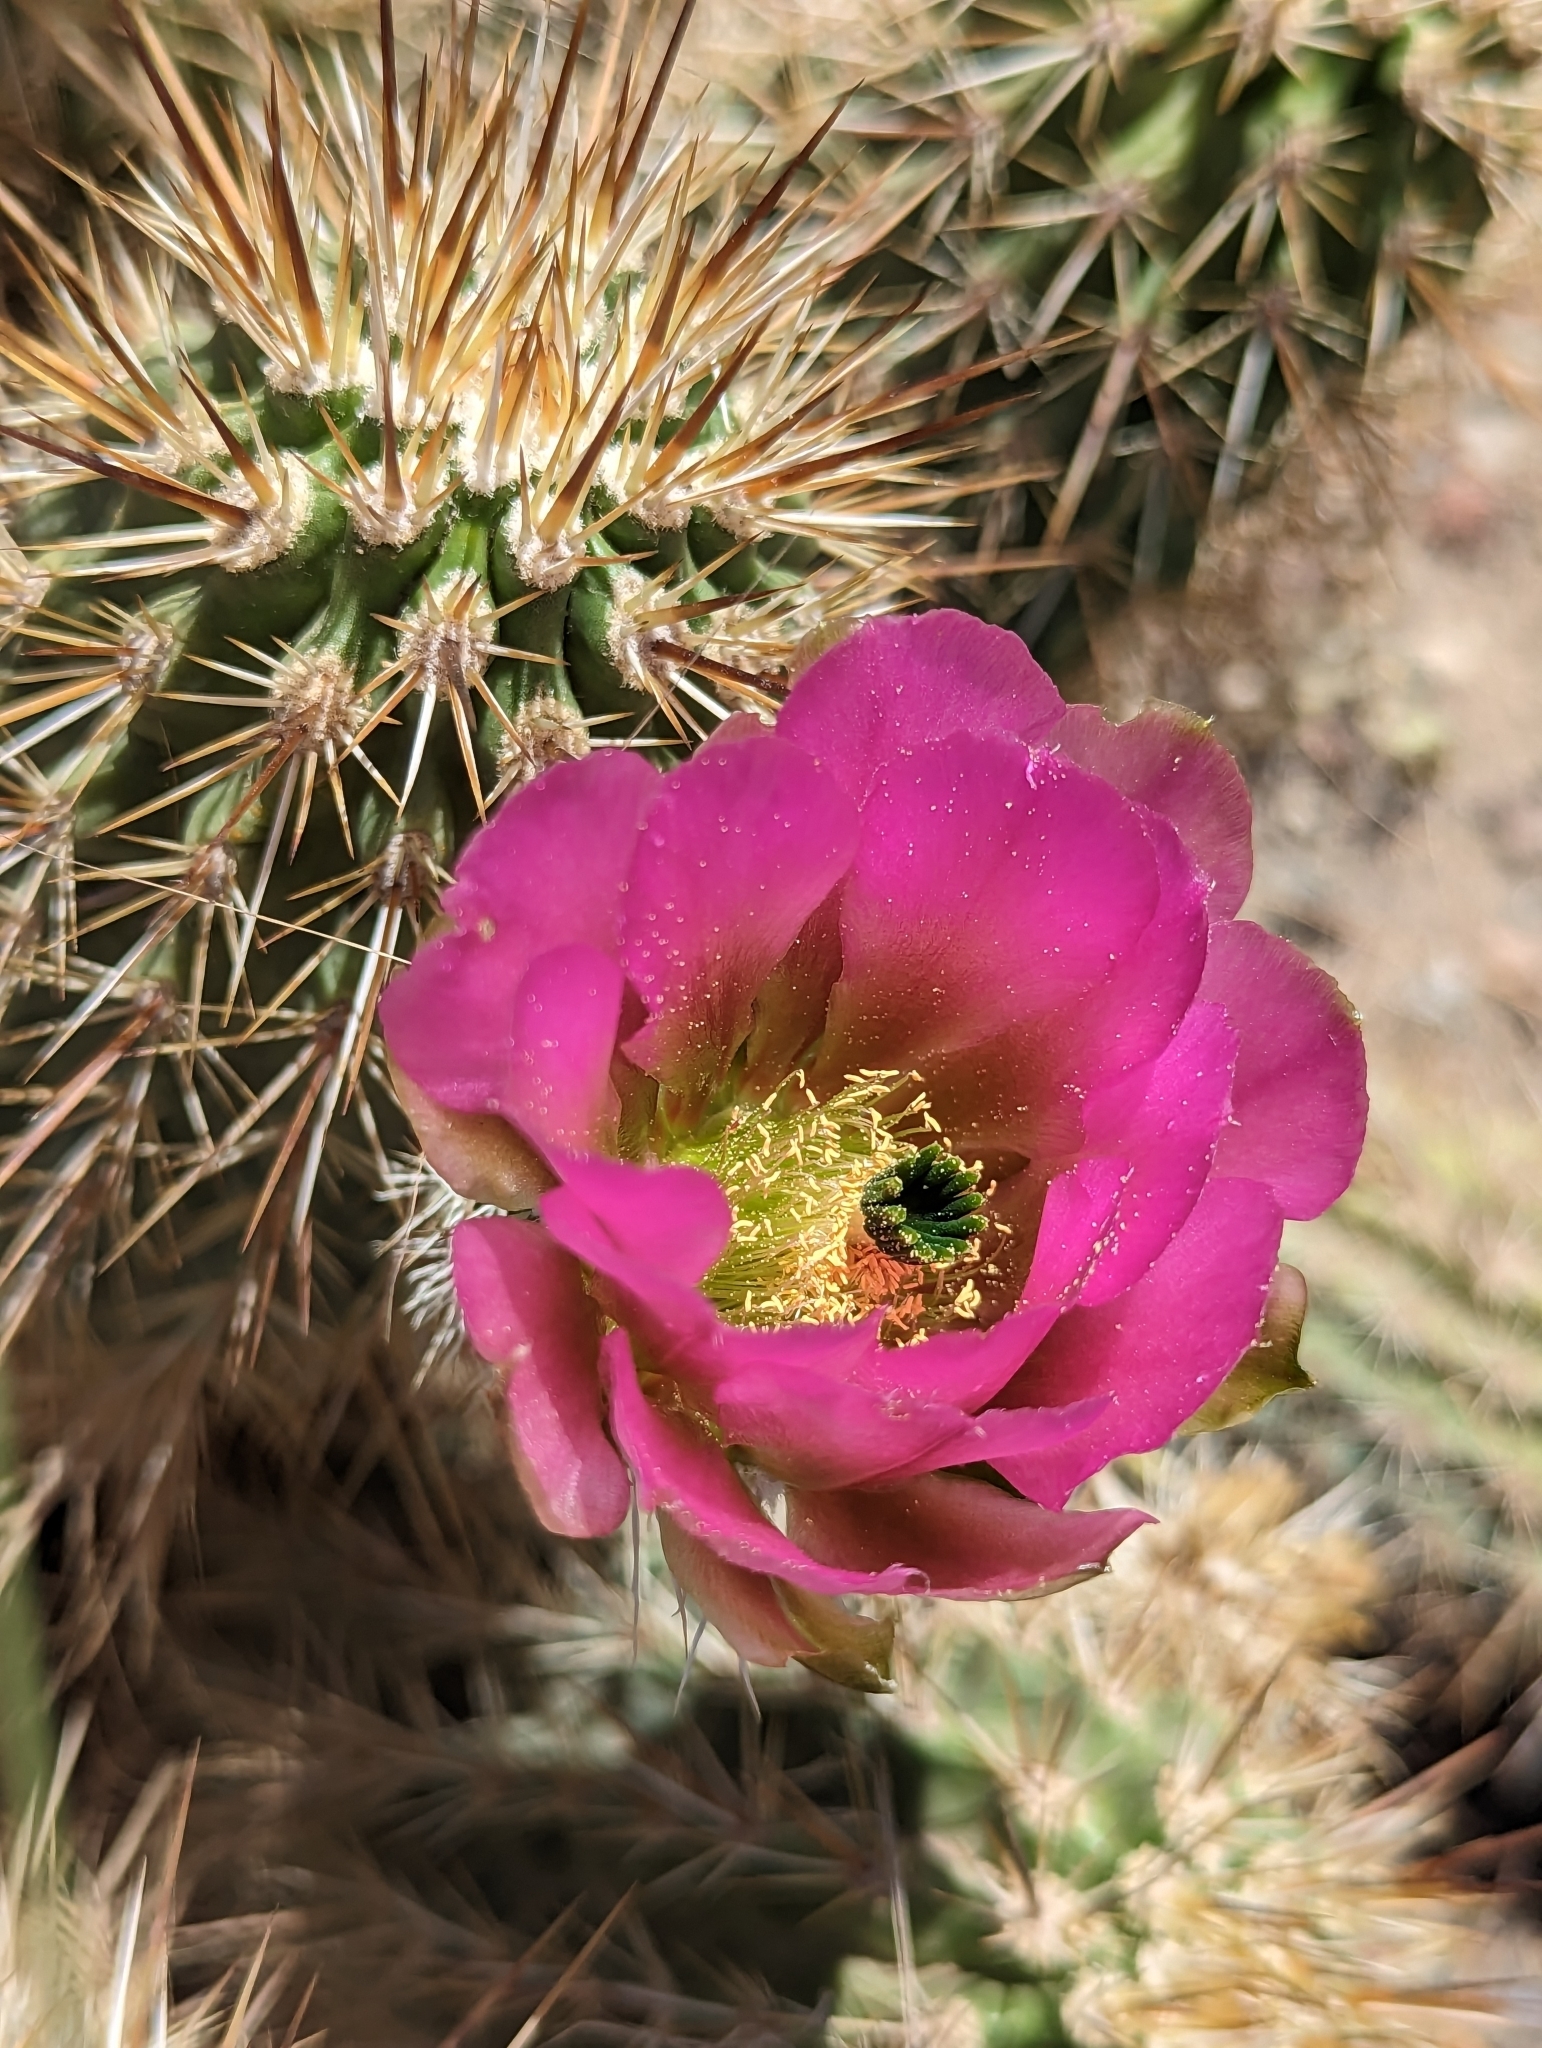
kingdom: Plantae
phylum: Tracheophyta
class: Magnoliopsida
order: Caryophyllales
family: Cactaceae
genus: Echinocereus
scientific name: Echinocereus fasciculatus
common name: Bundle hedgehog
